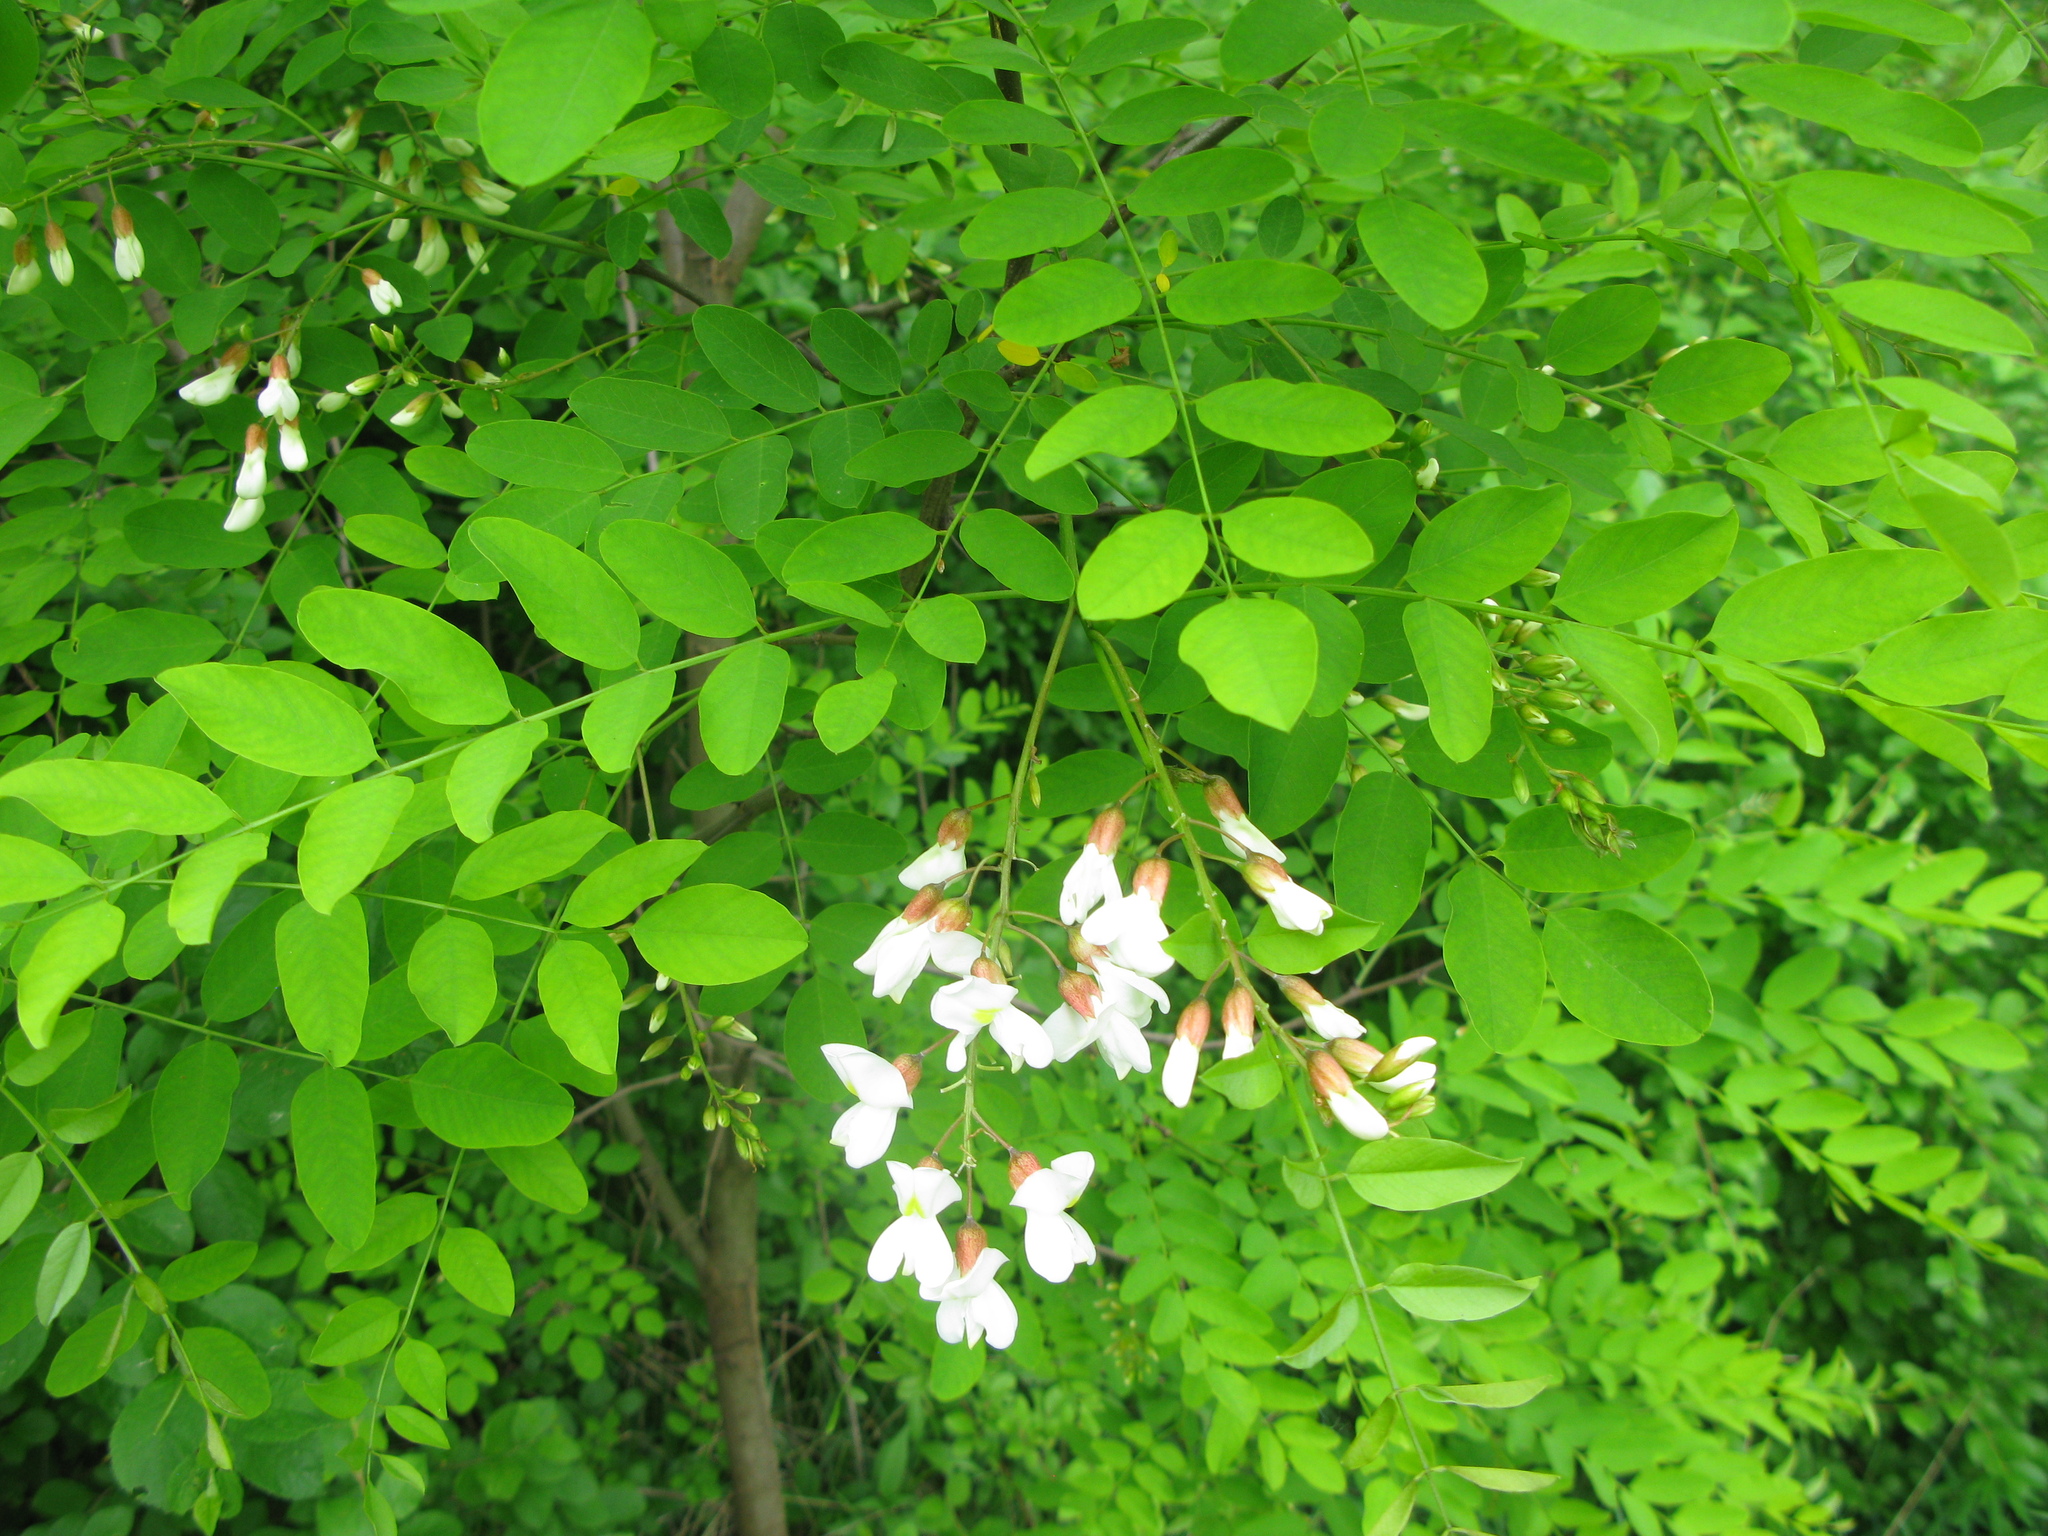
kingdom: Plantae
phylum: Tracheophyta
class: Magnoliopsida
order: Fabales
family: Fabaceae
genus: Robinia
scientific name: Robinia pseudoacacia
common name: Black locust
